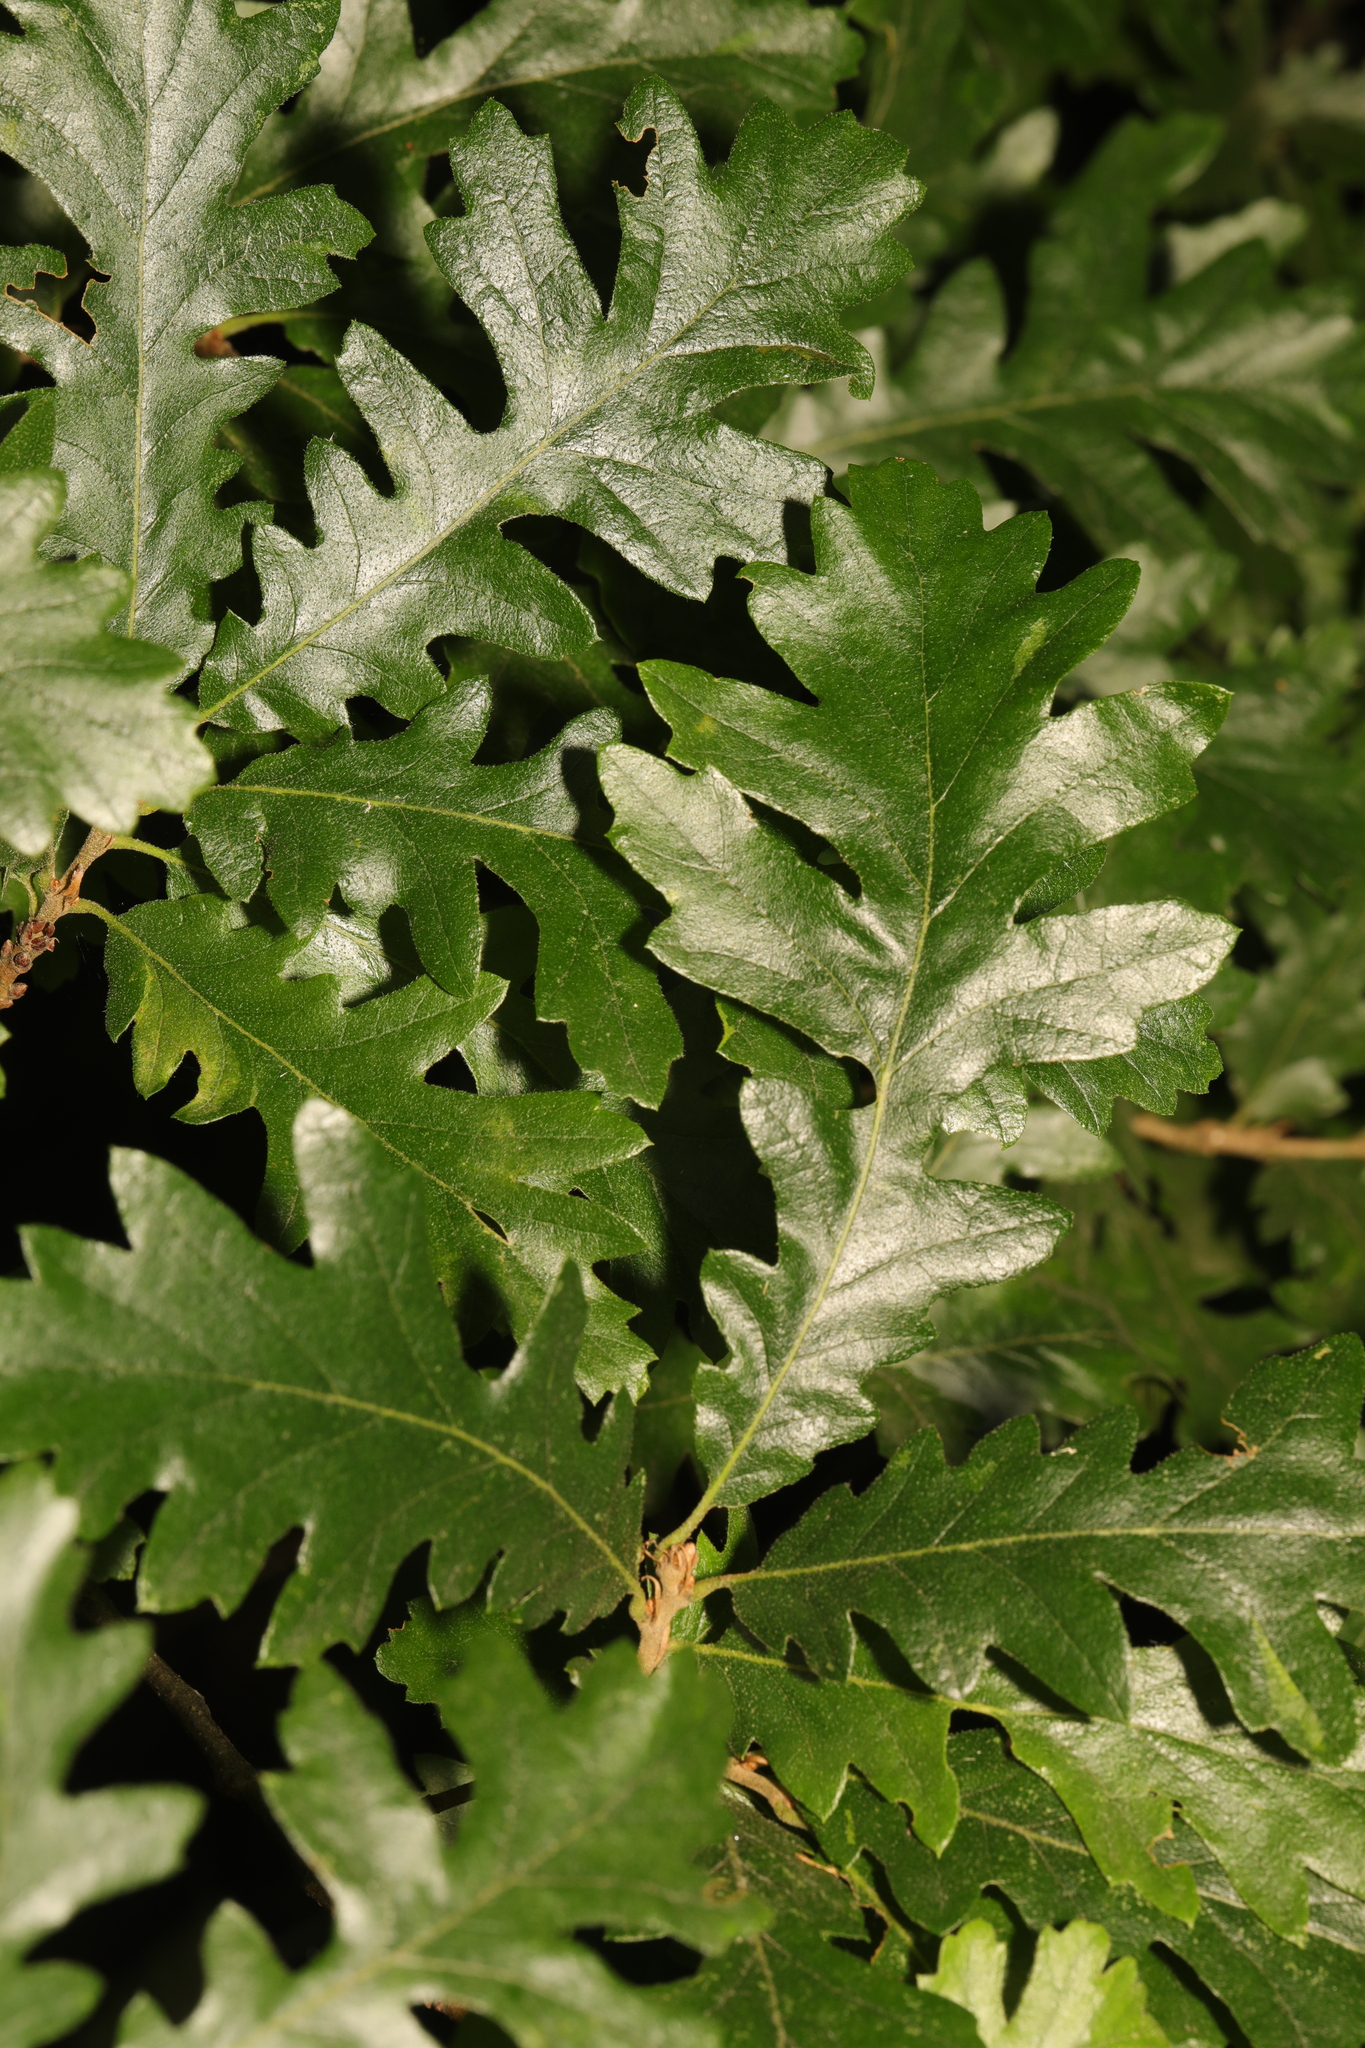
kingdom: Plantae
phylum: Tracheophyta
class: Magnoliopsida
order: Fagales
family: Fagaceae
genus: Quercus
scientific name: Quercus cerris
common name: Turkey oak
